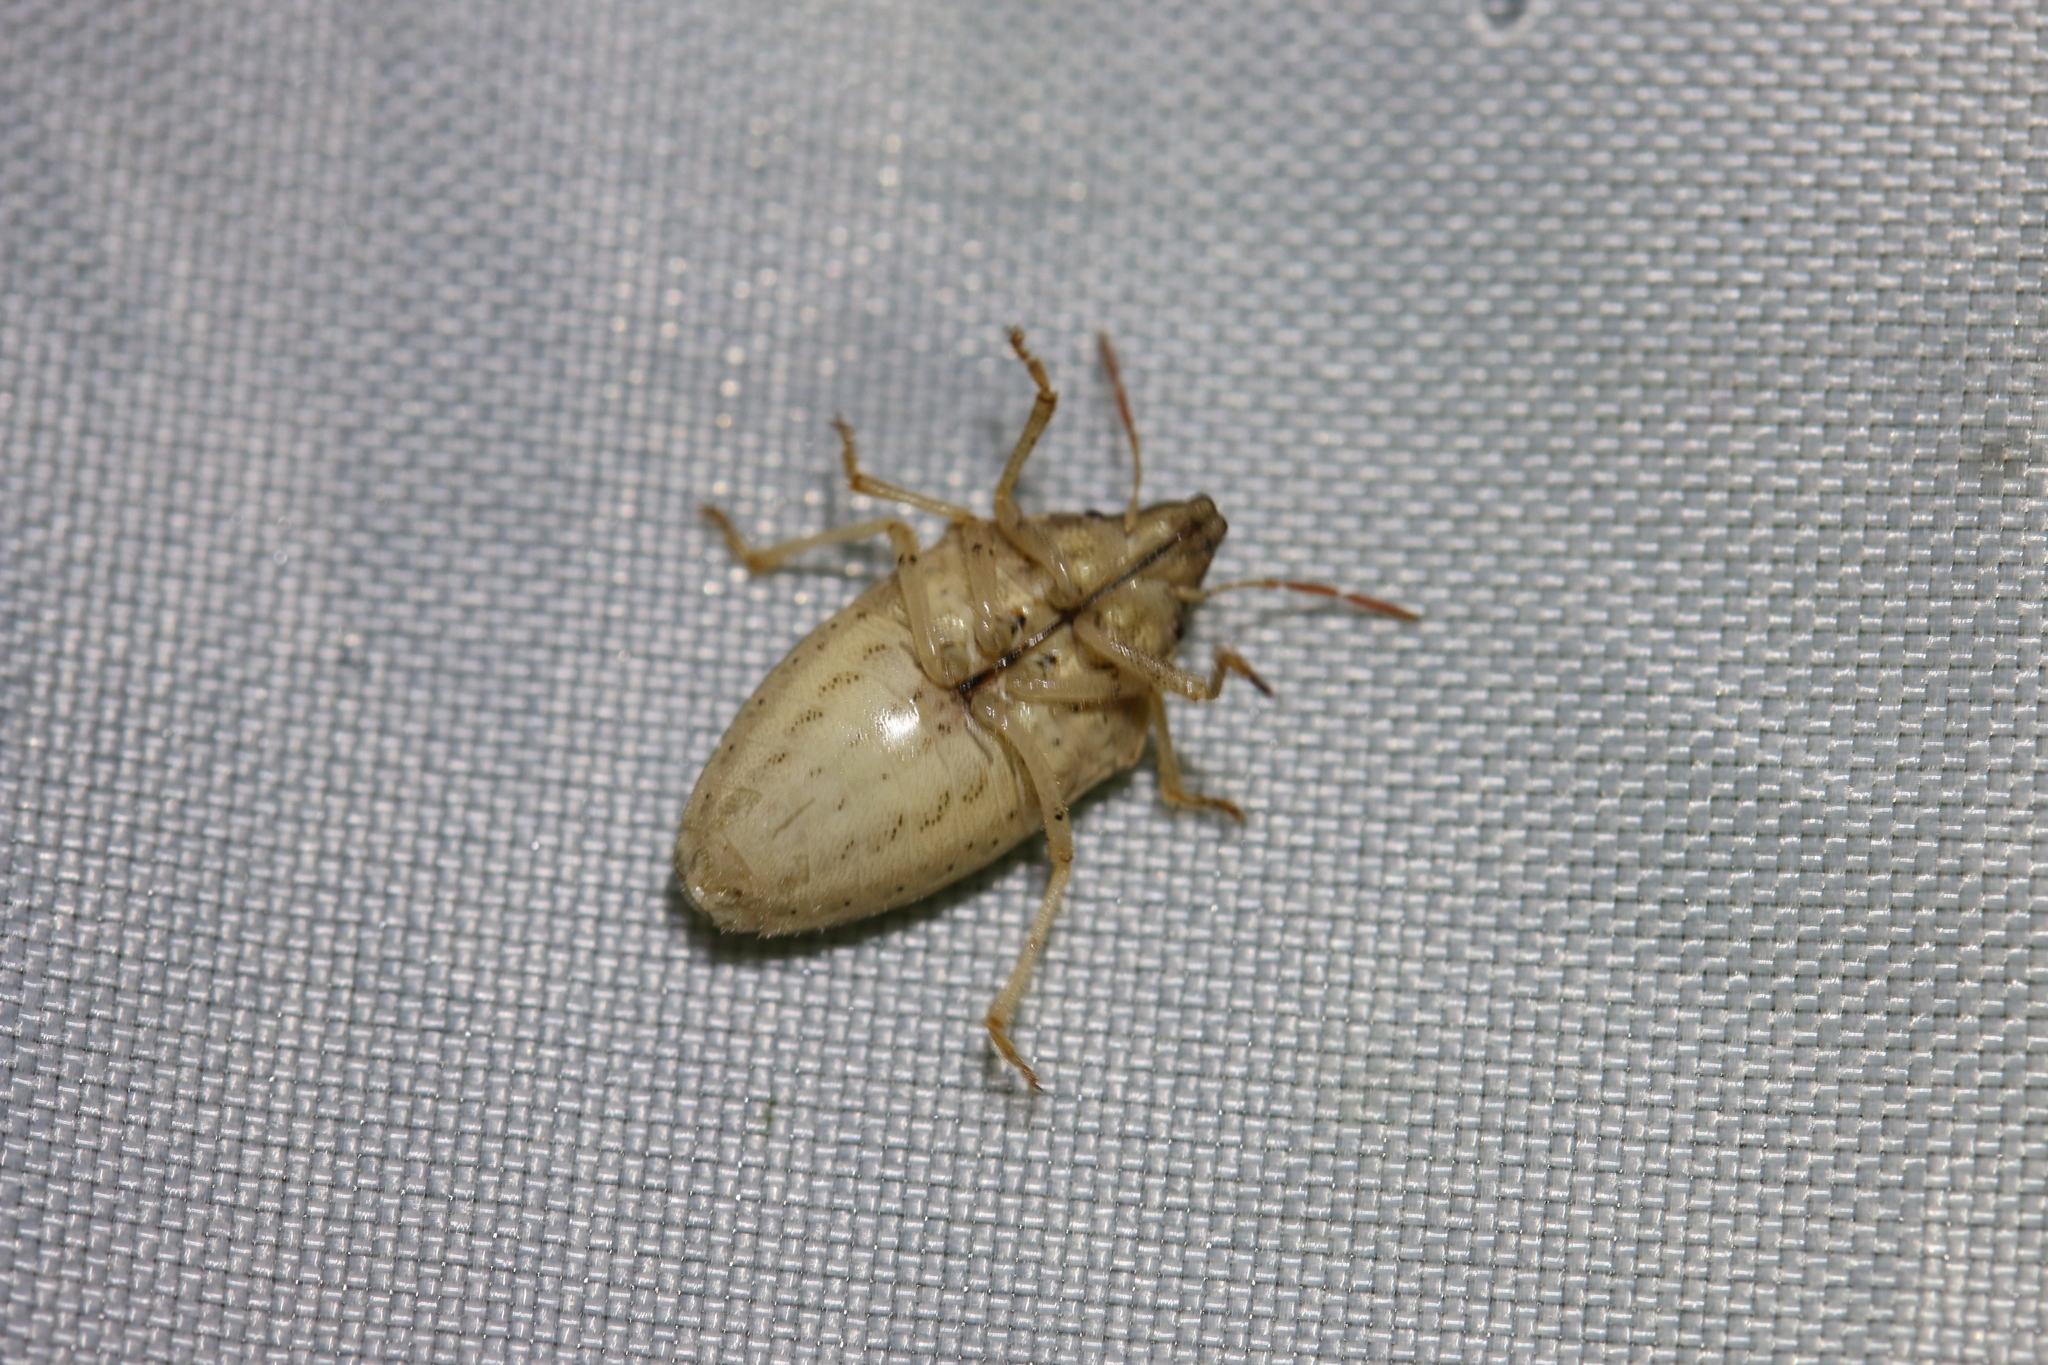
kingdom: Animalia
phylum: Arthropoda
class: Insecta
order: Hemiptera
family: Pentatomidae
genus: Aelia
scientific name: Aelia acuminata
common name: Bishop's mitre
